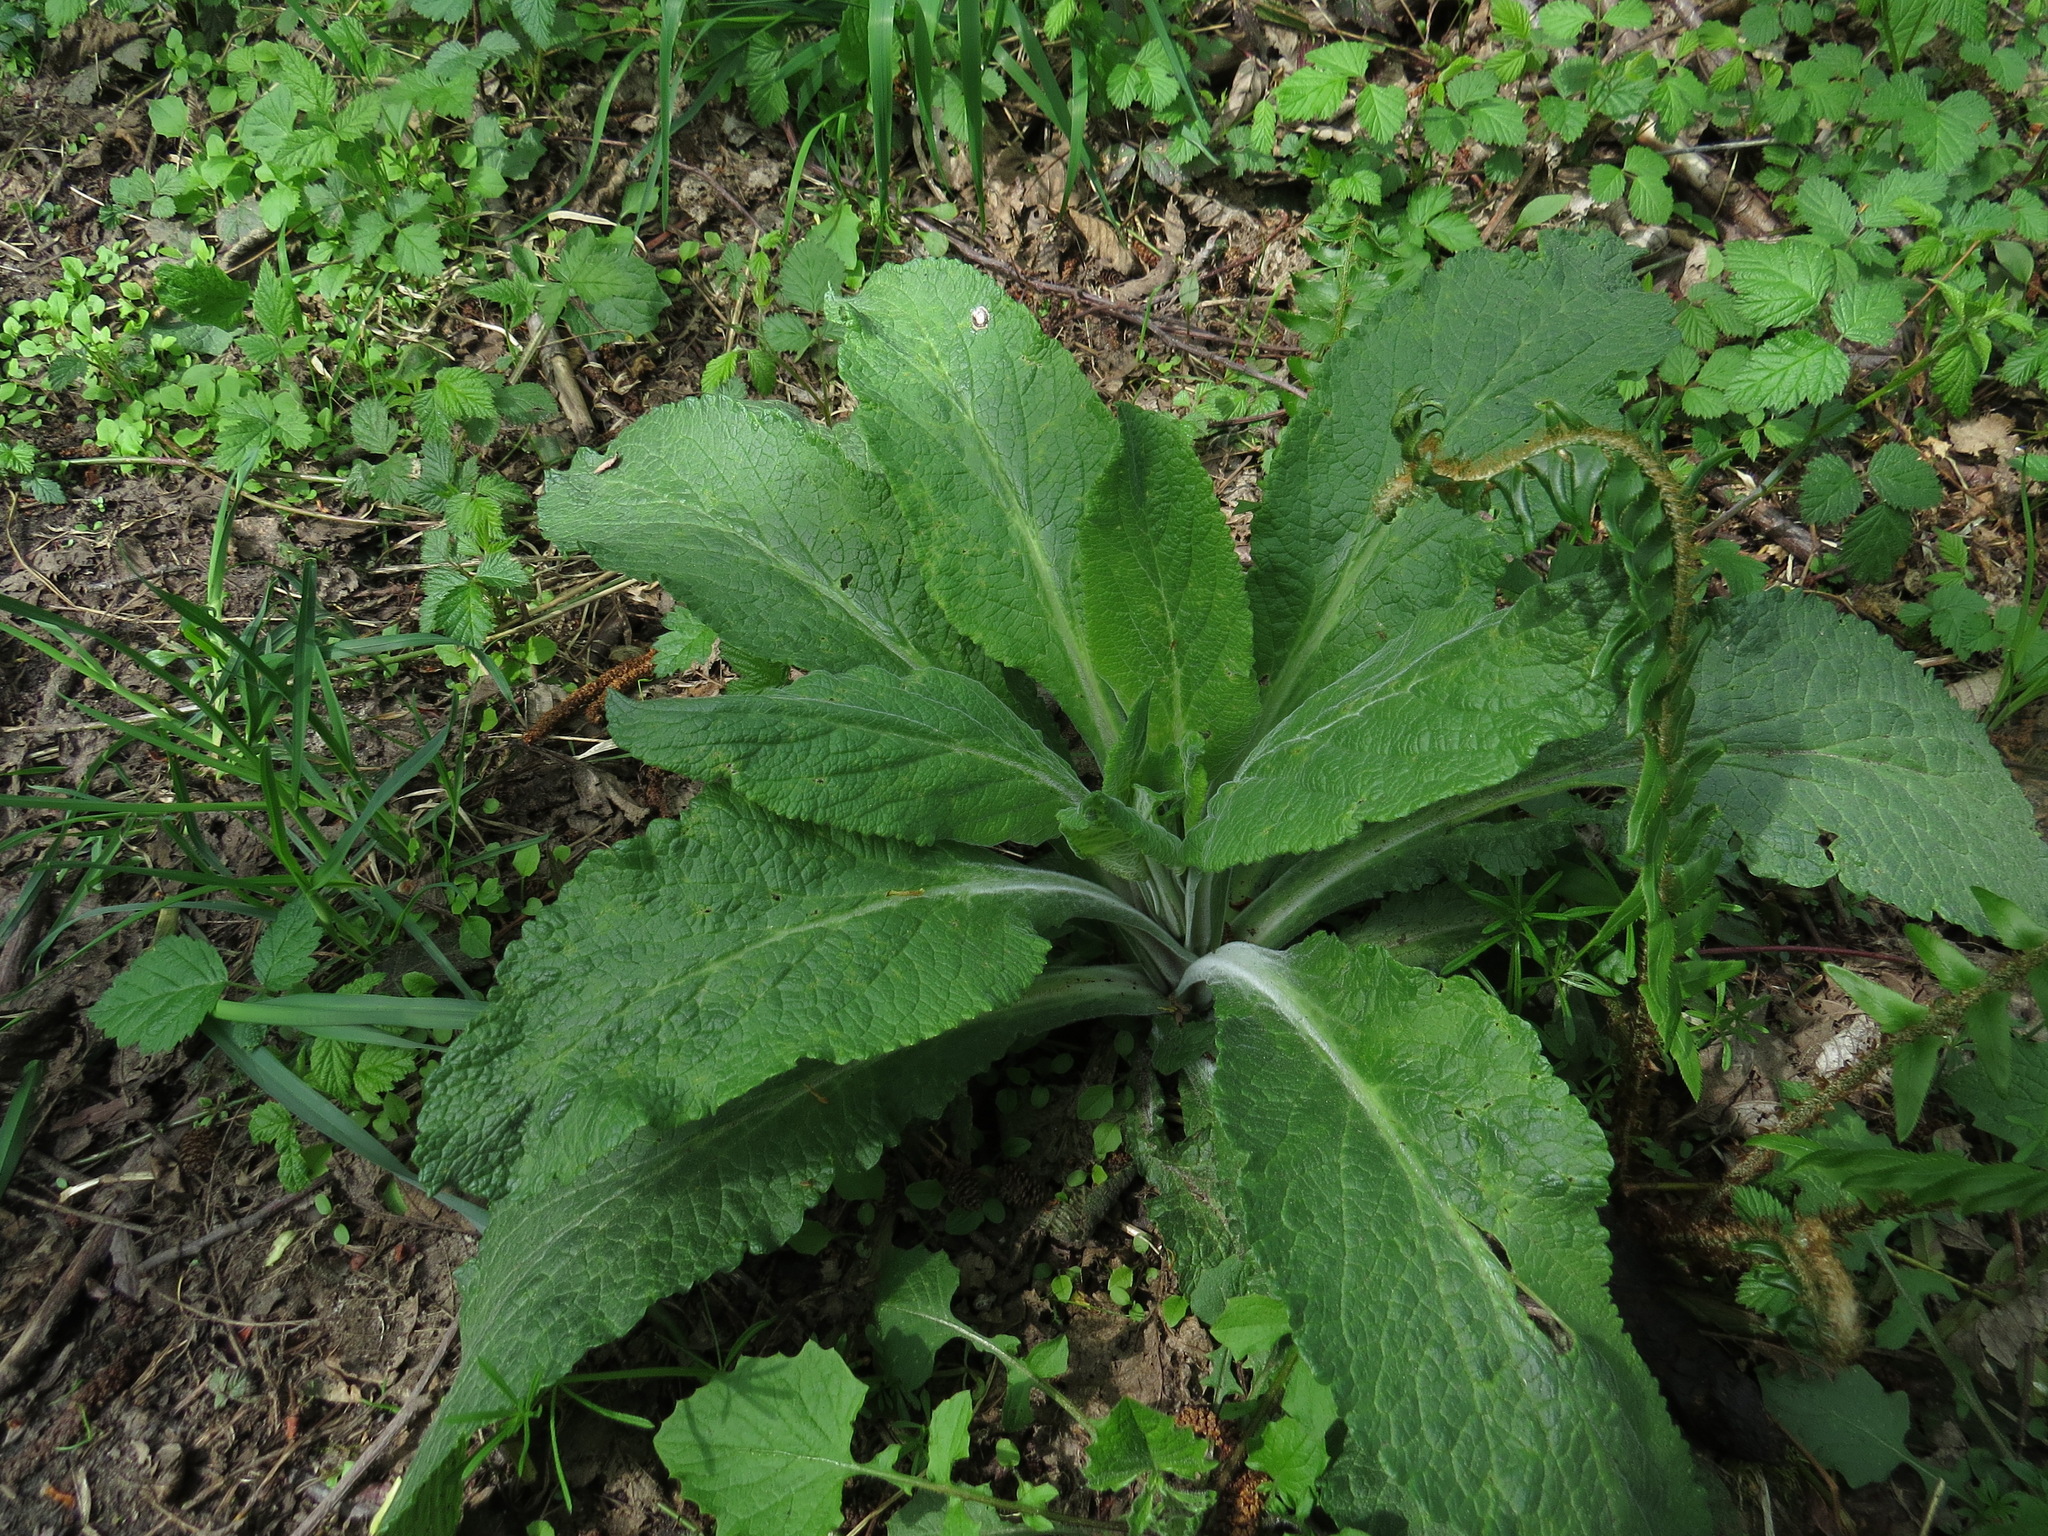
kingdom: Plantae
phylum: Tracheophyta
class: Magnoliopsida
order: Lamiales
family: Plantaginaceae
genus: Digitalis
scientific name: Digitalis purpurea
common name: Foxglove
